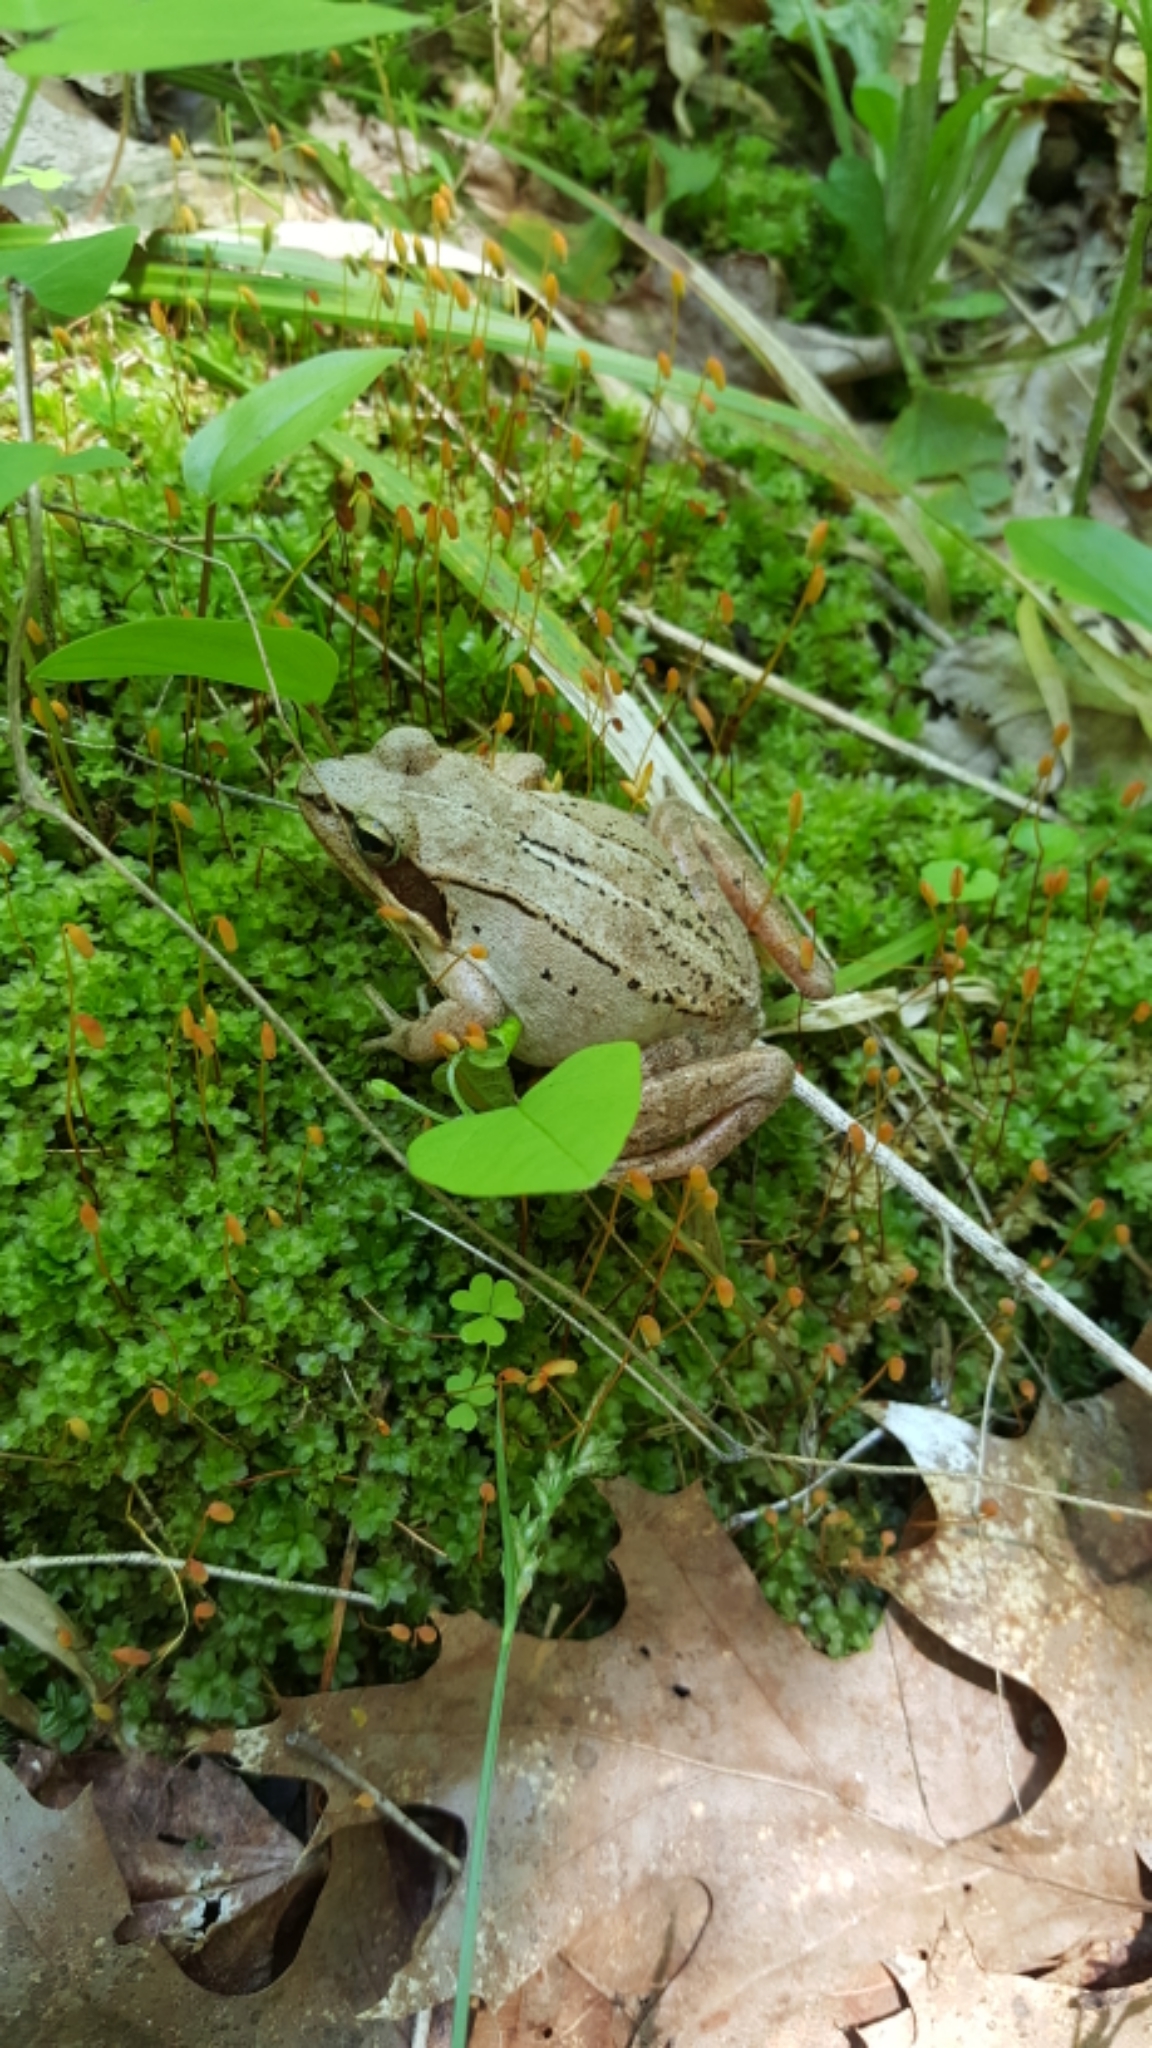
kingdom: Animalia
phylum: Chordata
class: Amphibia
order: Anura
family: Ranidae
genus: Lithobates
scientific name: Lithobates sylvaticus
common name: Wood frog
